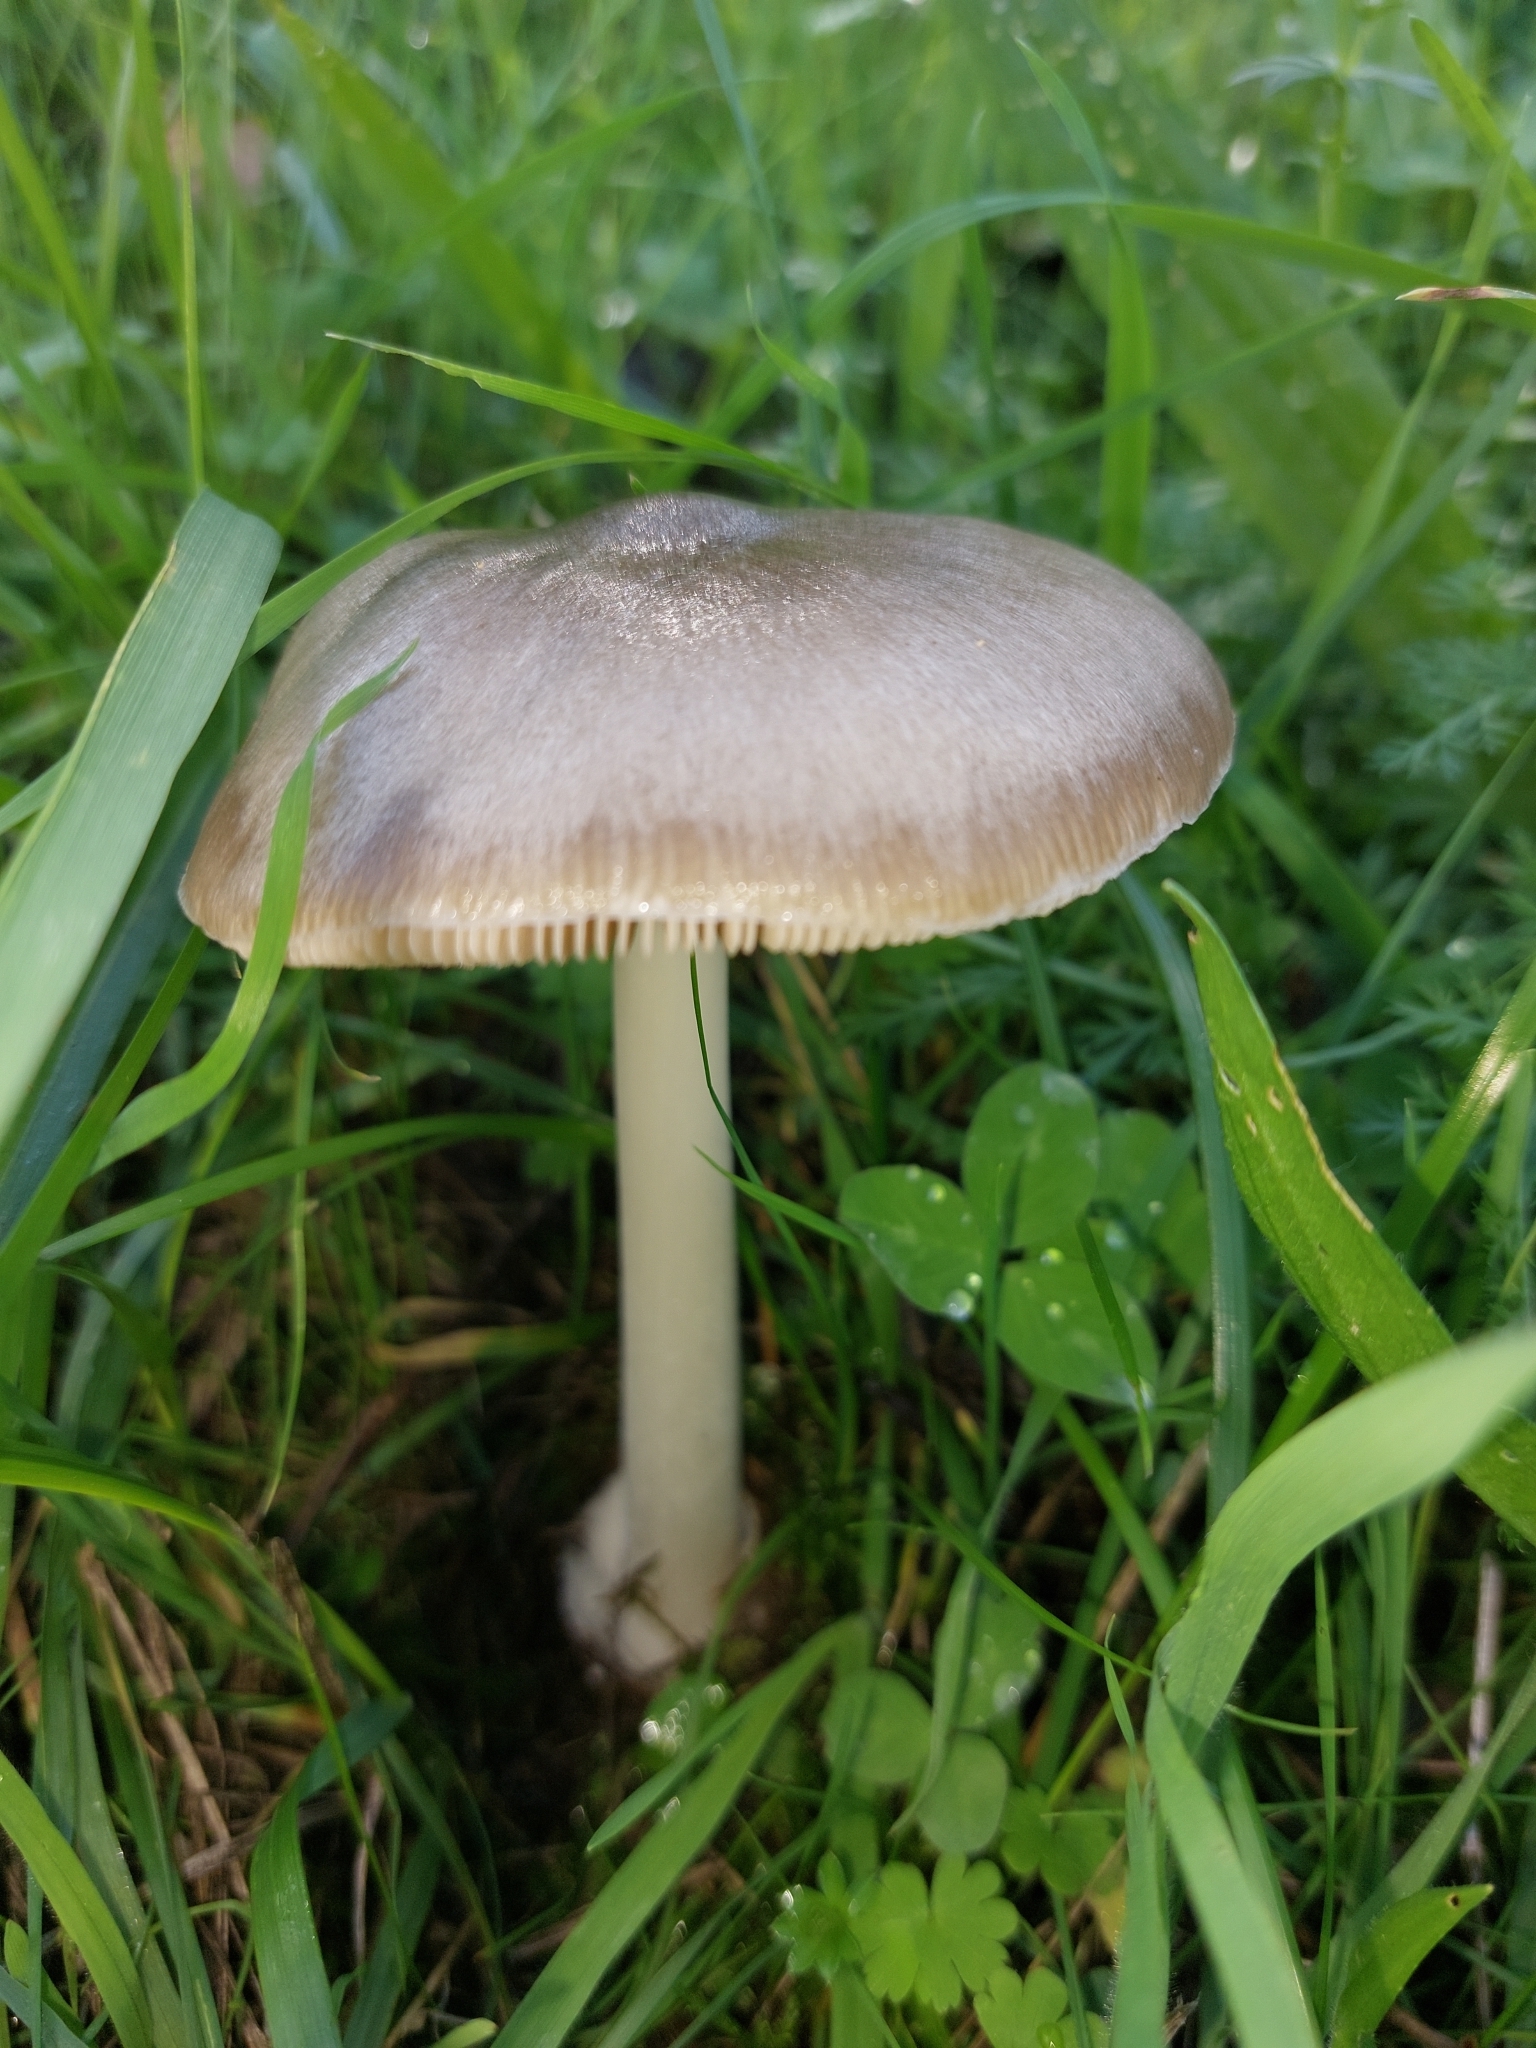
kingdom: Fungi
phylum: Basidiomycota
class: Agaricomycetes
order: Agaricales
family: Pluteaceae
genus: Volvopluteus
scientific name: Volvopluteus gloiocephalus
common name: Stubble rosegill
